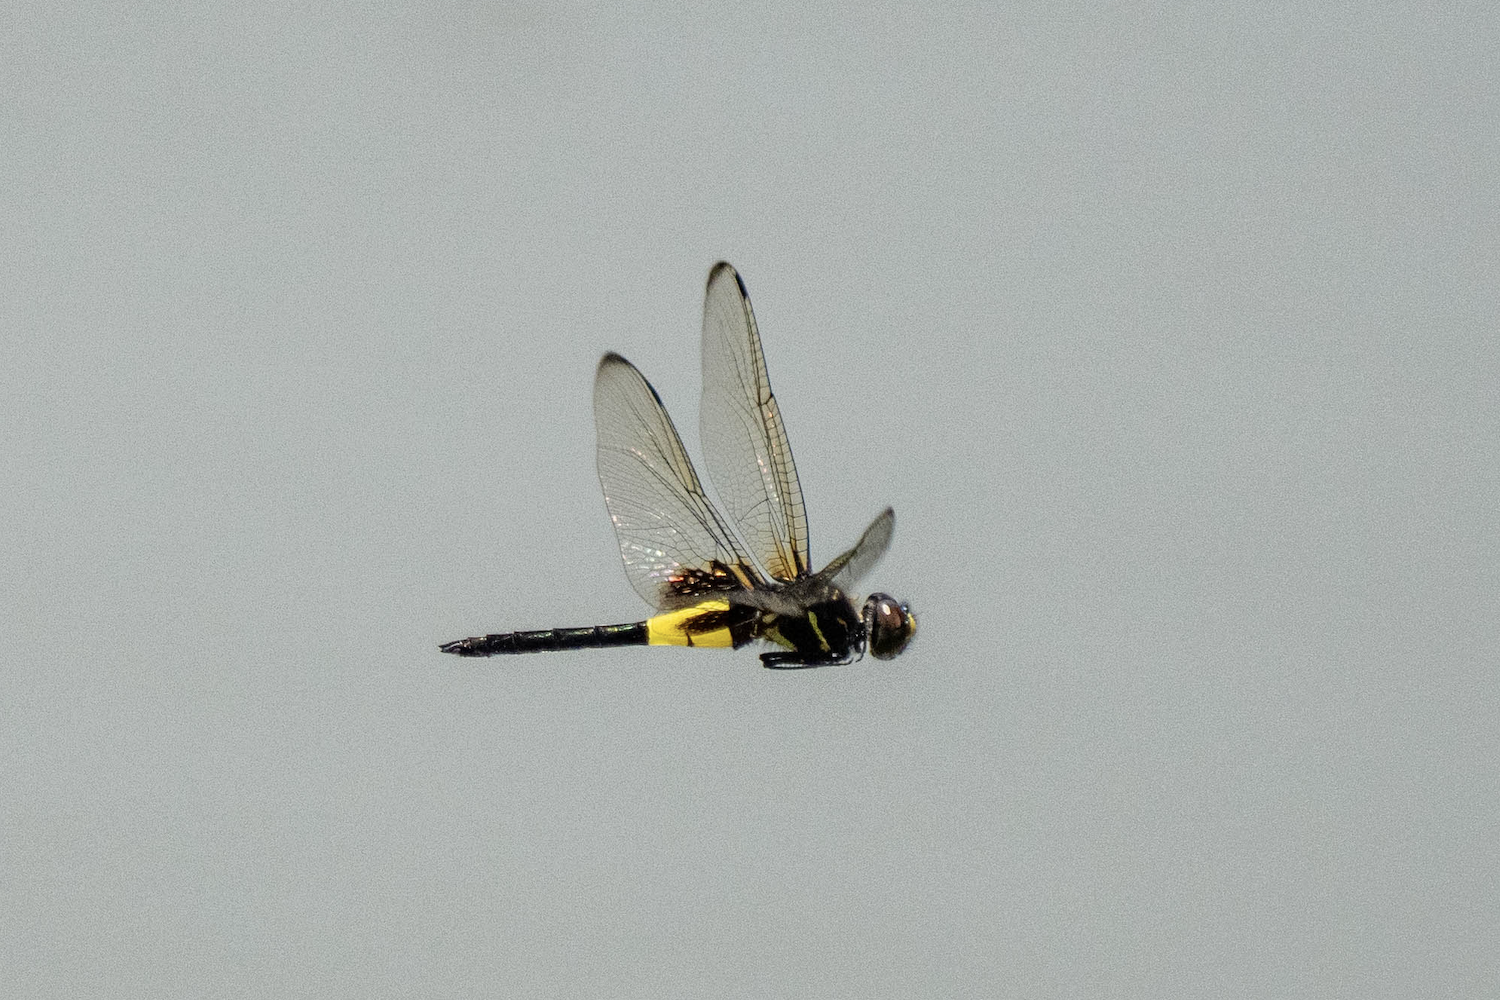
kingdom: Animalia
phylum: Arthropoda
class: Insecta
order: Odonata
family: Libellulidae
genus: Pseudothemis
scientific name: Pseudothemis zonata
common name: Pied skimmer
